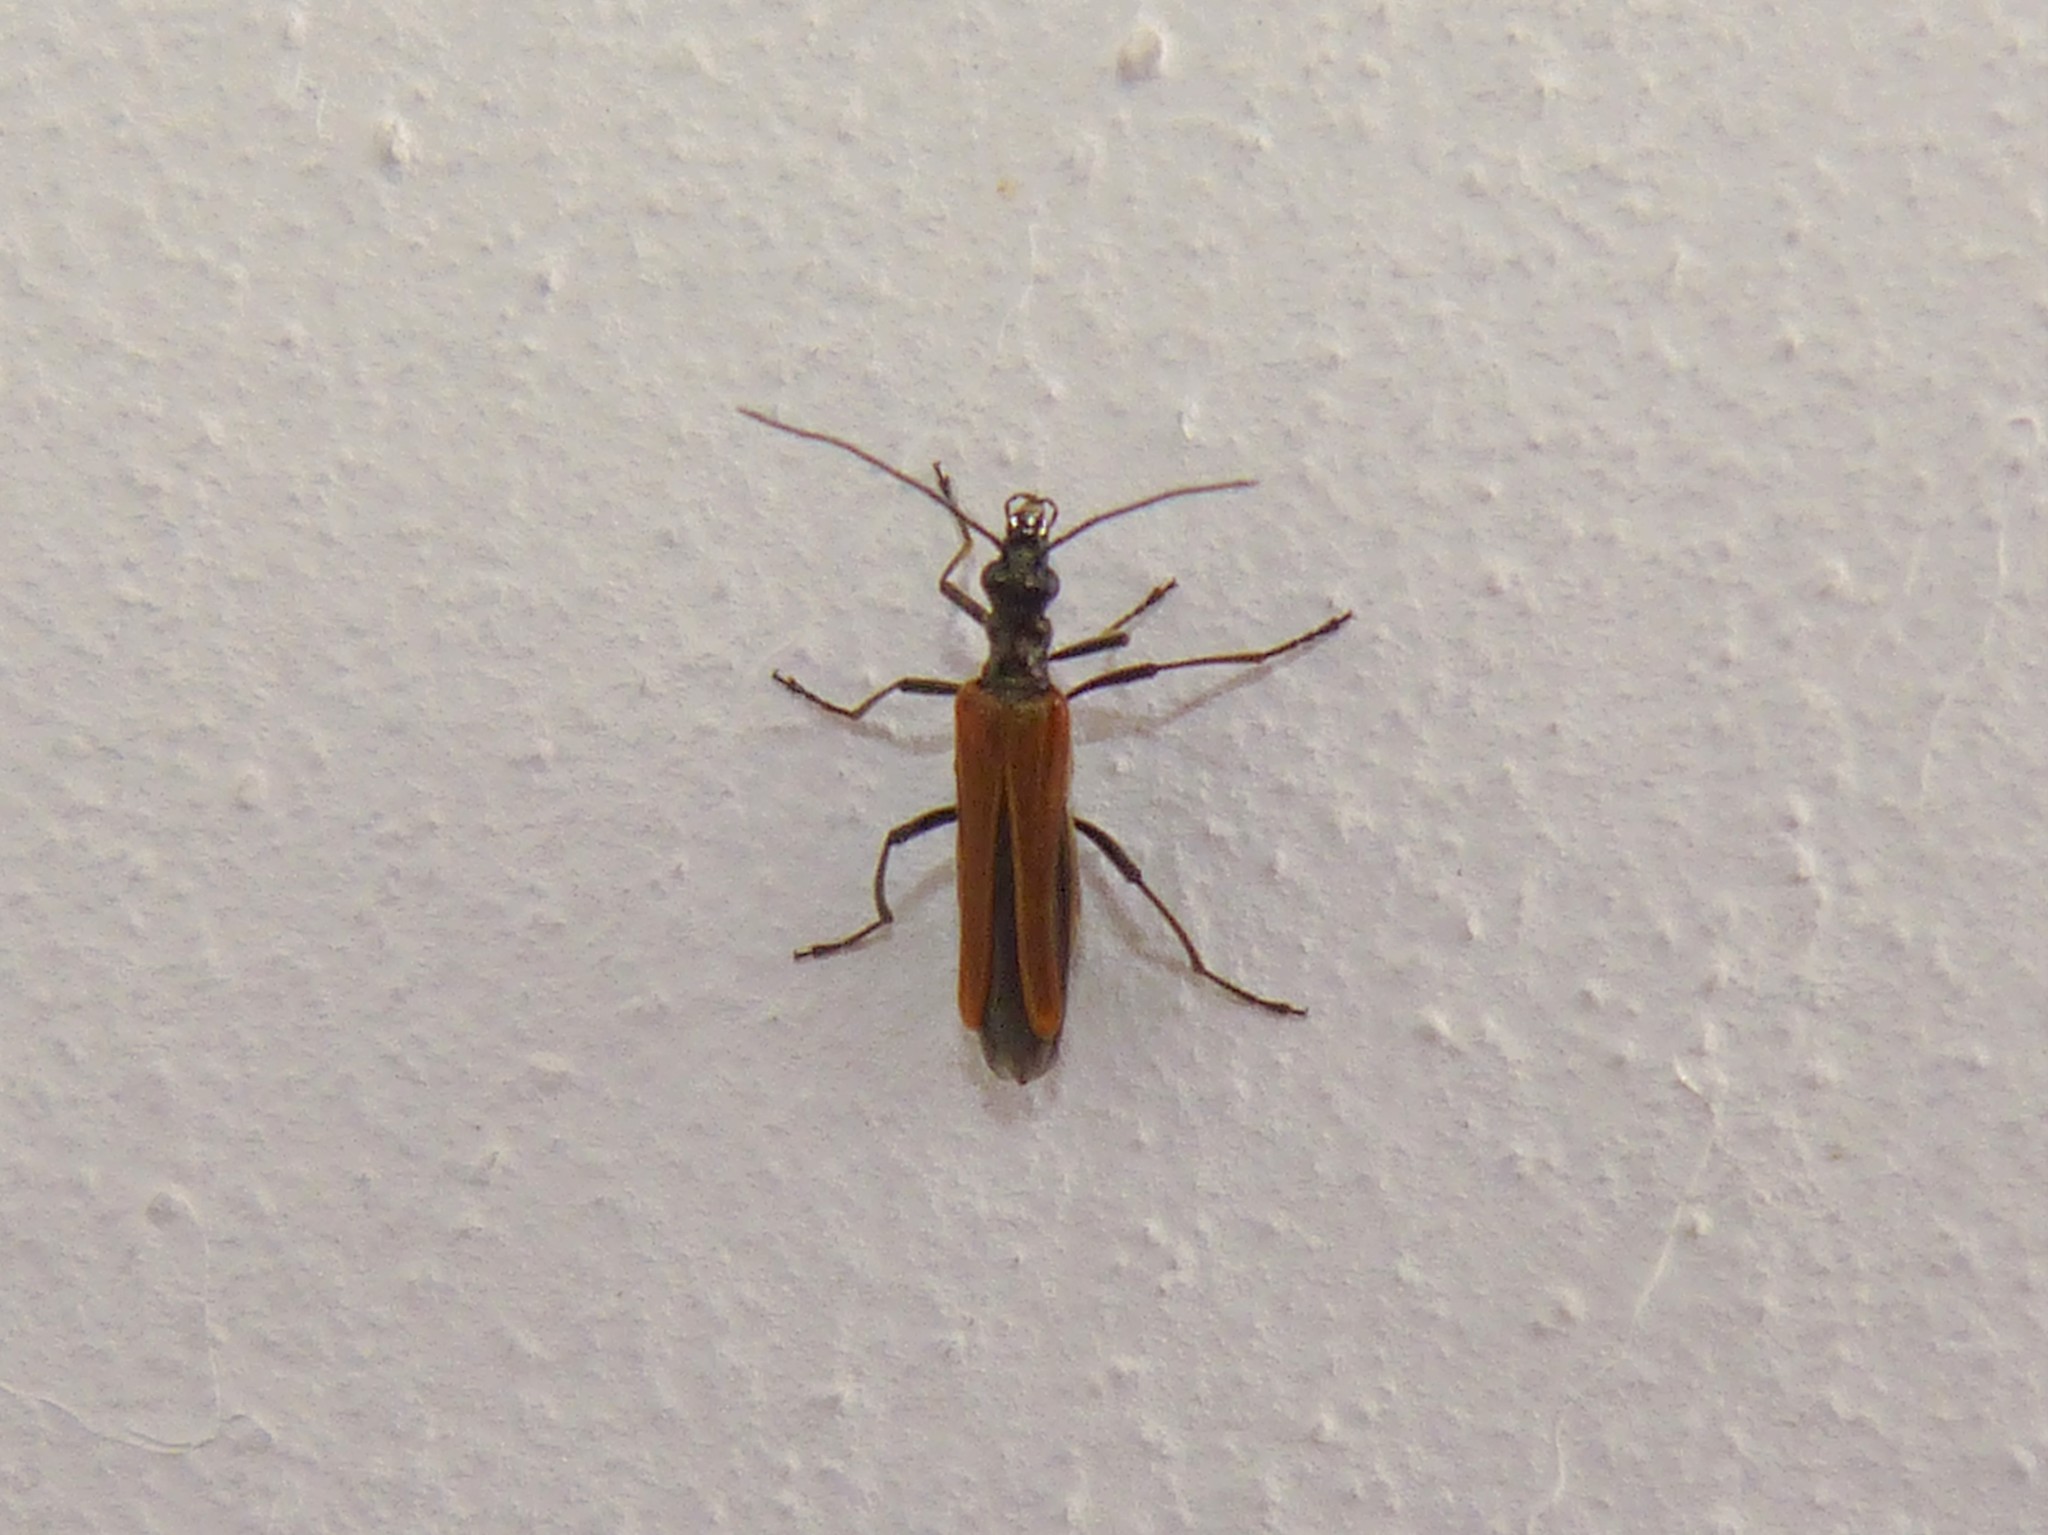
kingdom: Animalia
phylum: Arthropoda
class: Insecta
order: Coleoptera
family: Oedemeridae
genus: Oedemera
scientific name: Oedemera femorata
